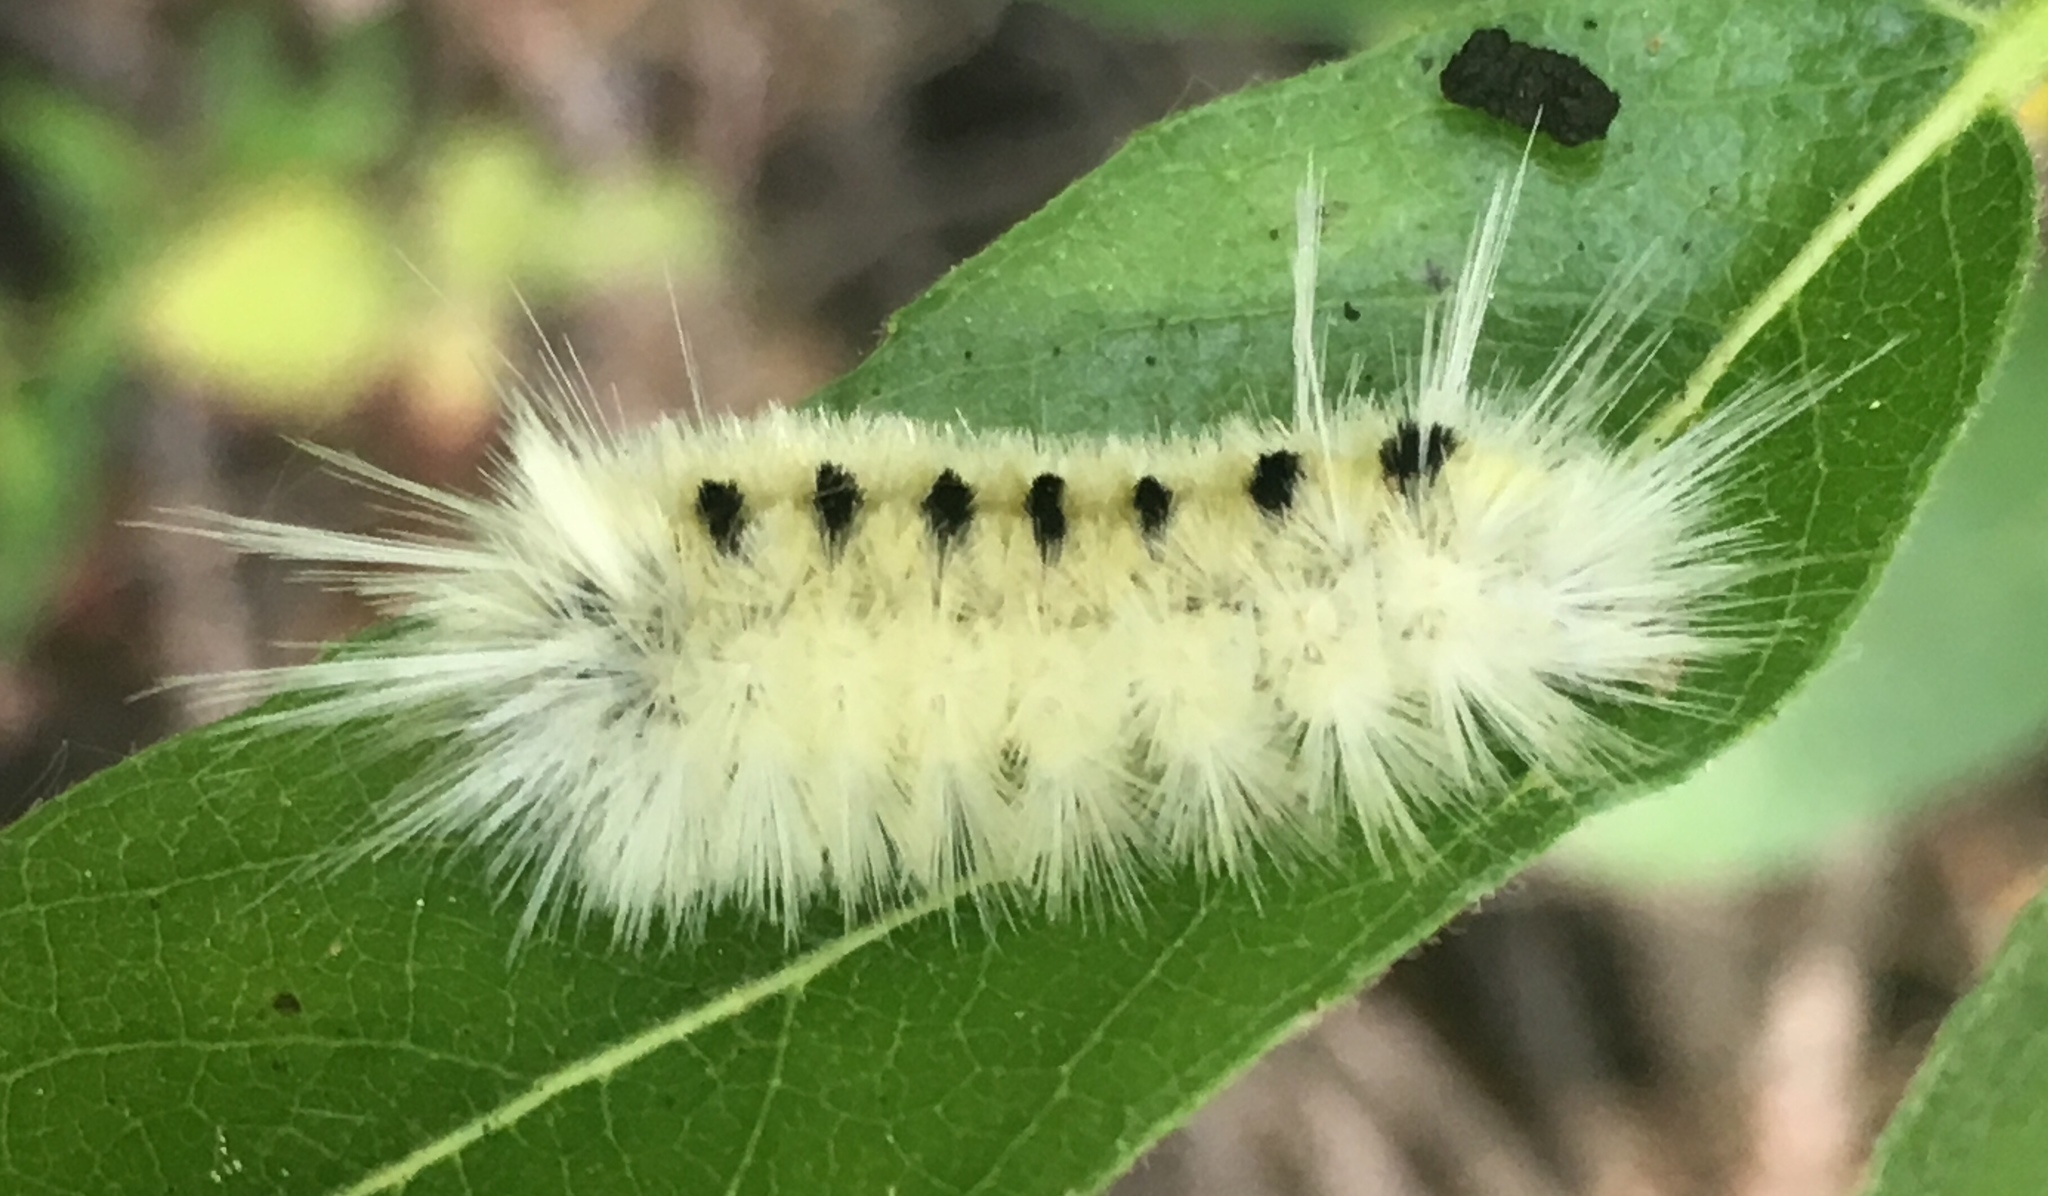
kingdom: Animalia
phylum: Arthropoda
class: Insecta
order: Lepidoptera
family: Erebidae
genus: Lophocampa
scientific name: Lophocampa maculata
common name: Spotted tussock moth
